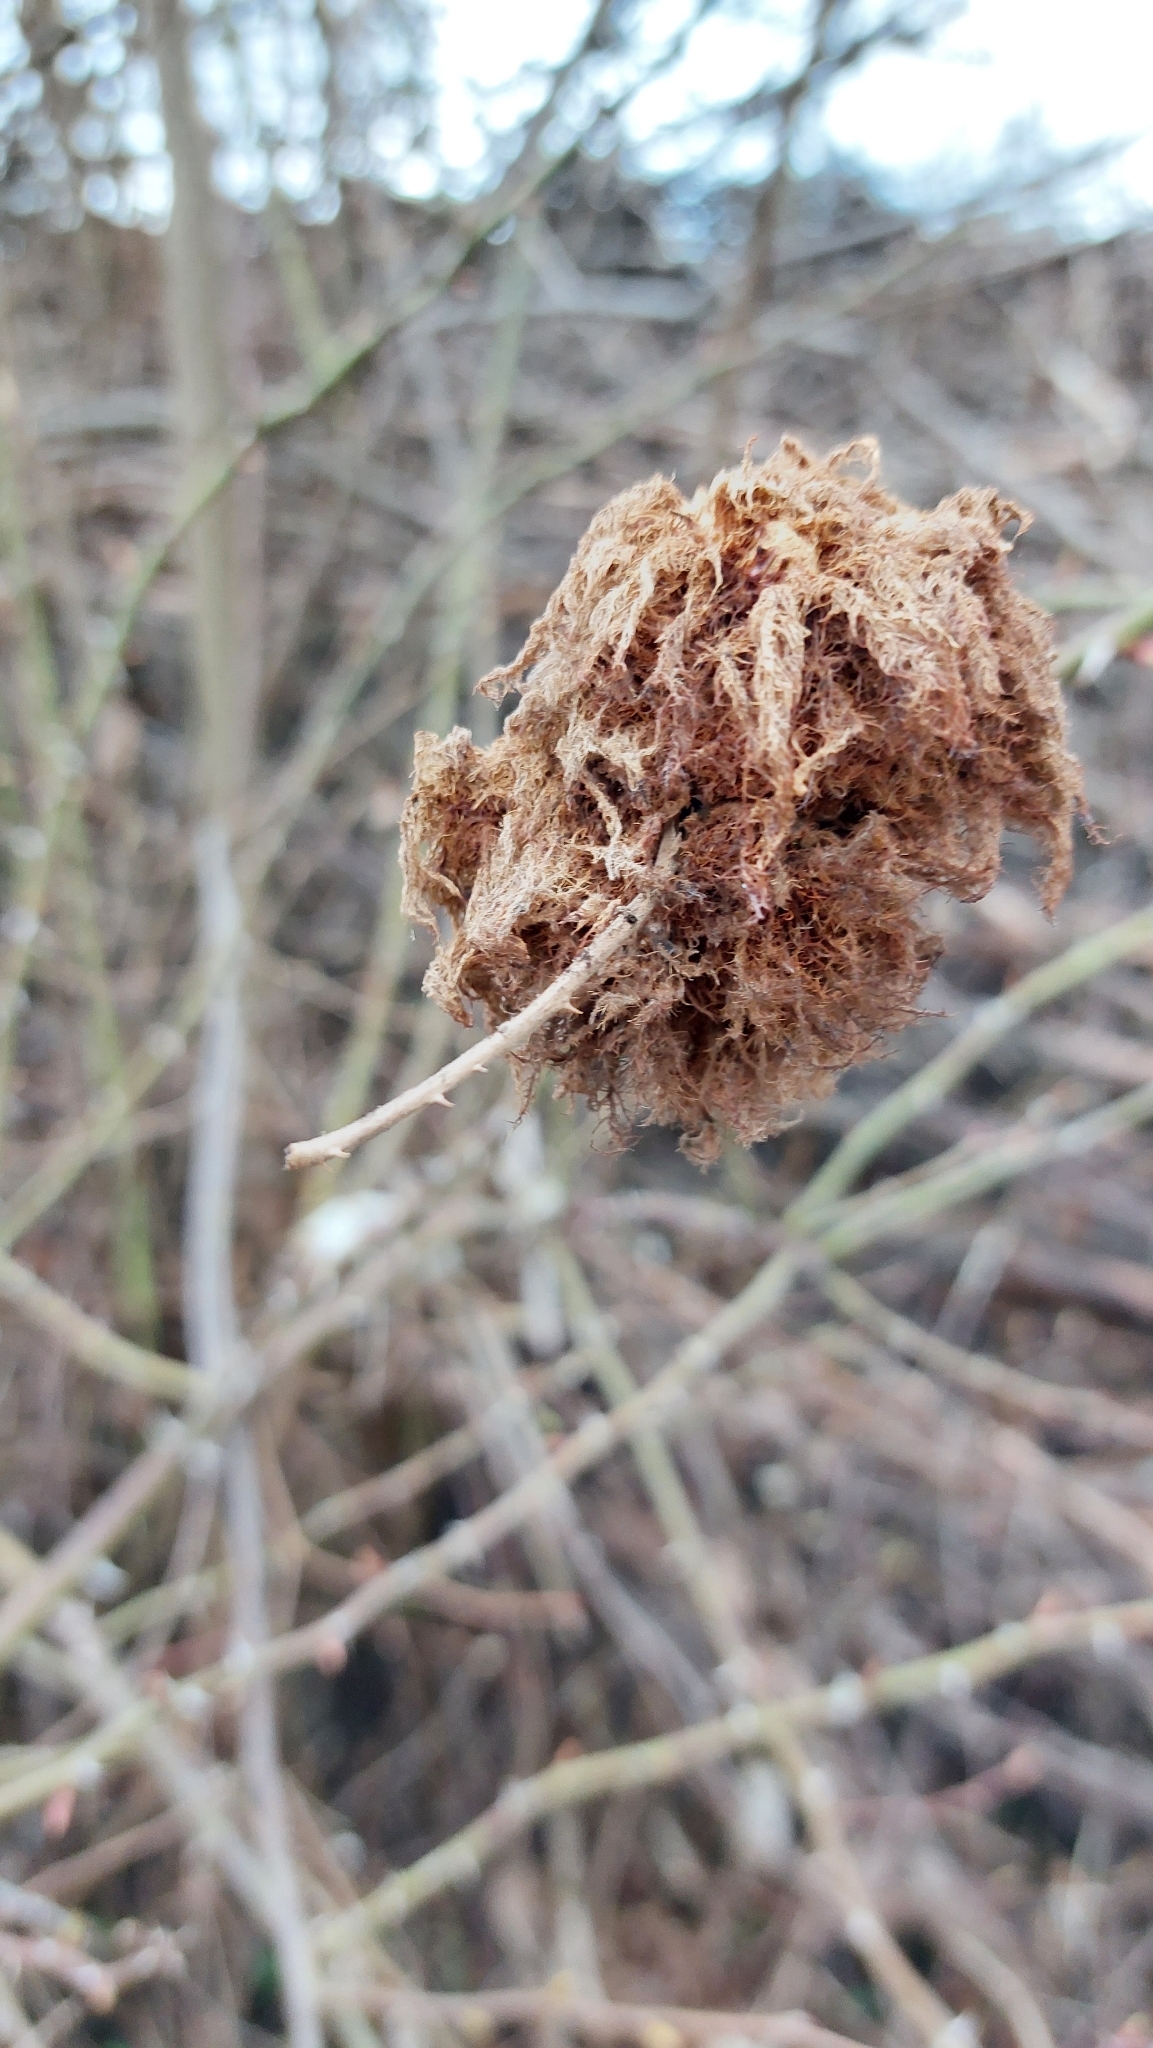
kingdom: Animalia
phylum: Arthropoda
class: Insecta
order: Hymenoptera
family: Cynipidae
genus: Diplolepis
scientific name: Diplolepis rosae
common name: Bedeguar gall
